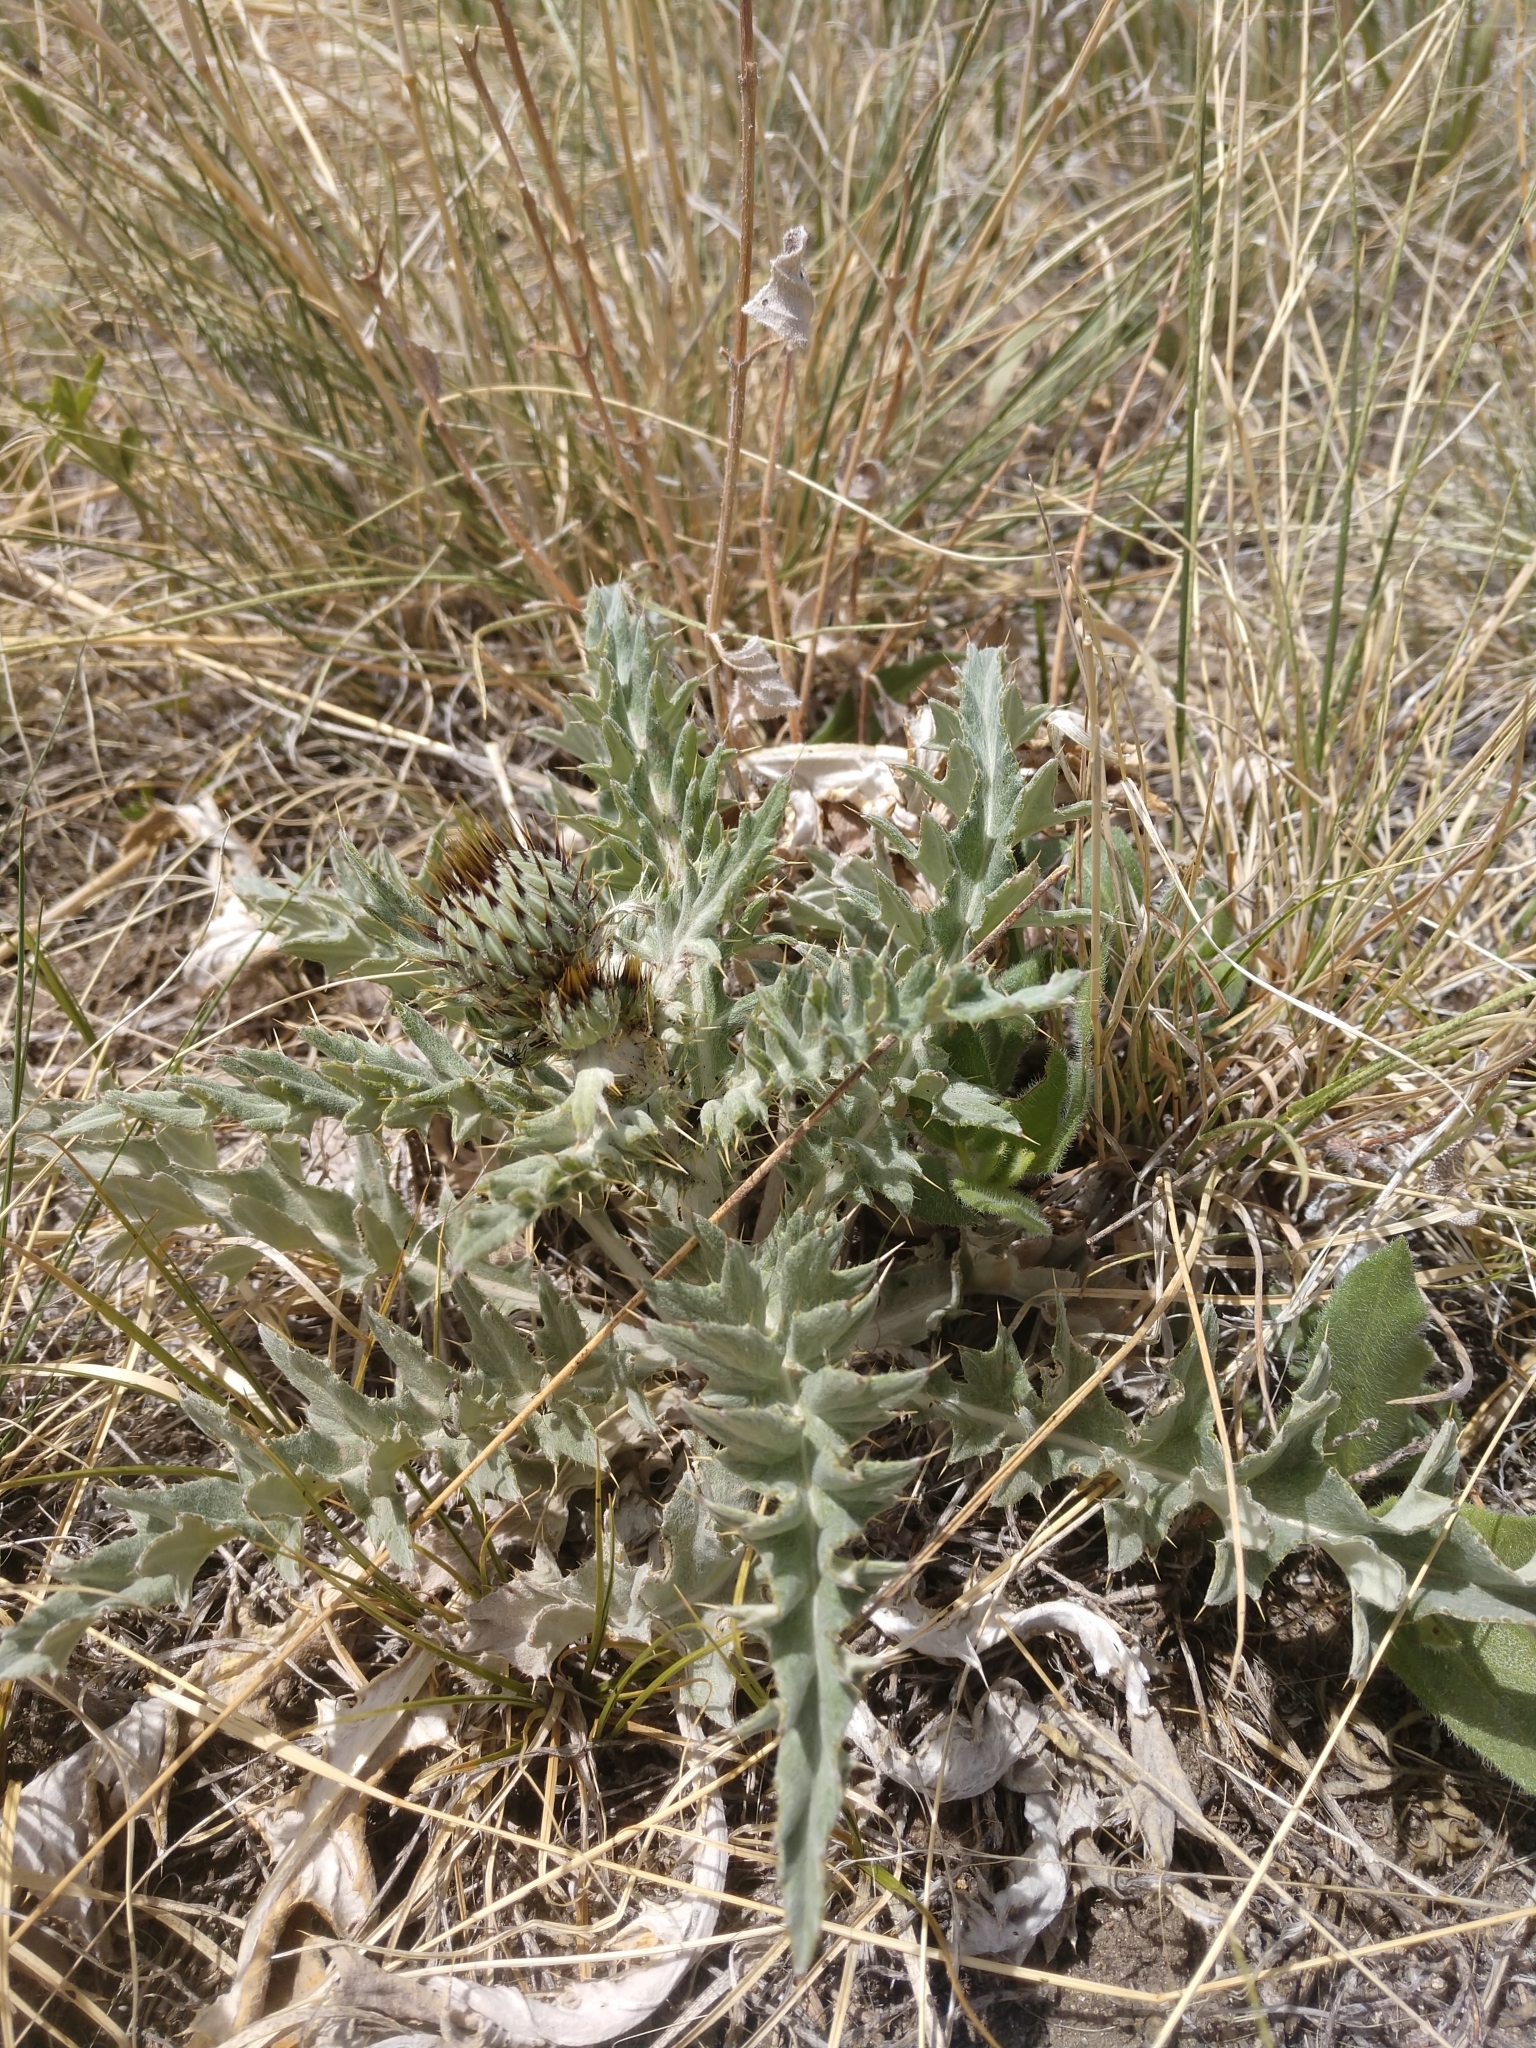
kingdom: Plantae
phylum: Tracheophyta
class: Magnoliopsida
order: Asterales
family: Asteraceae
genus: Cirsium
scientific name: Cirsium undulatum
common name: Pasture thistle
